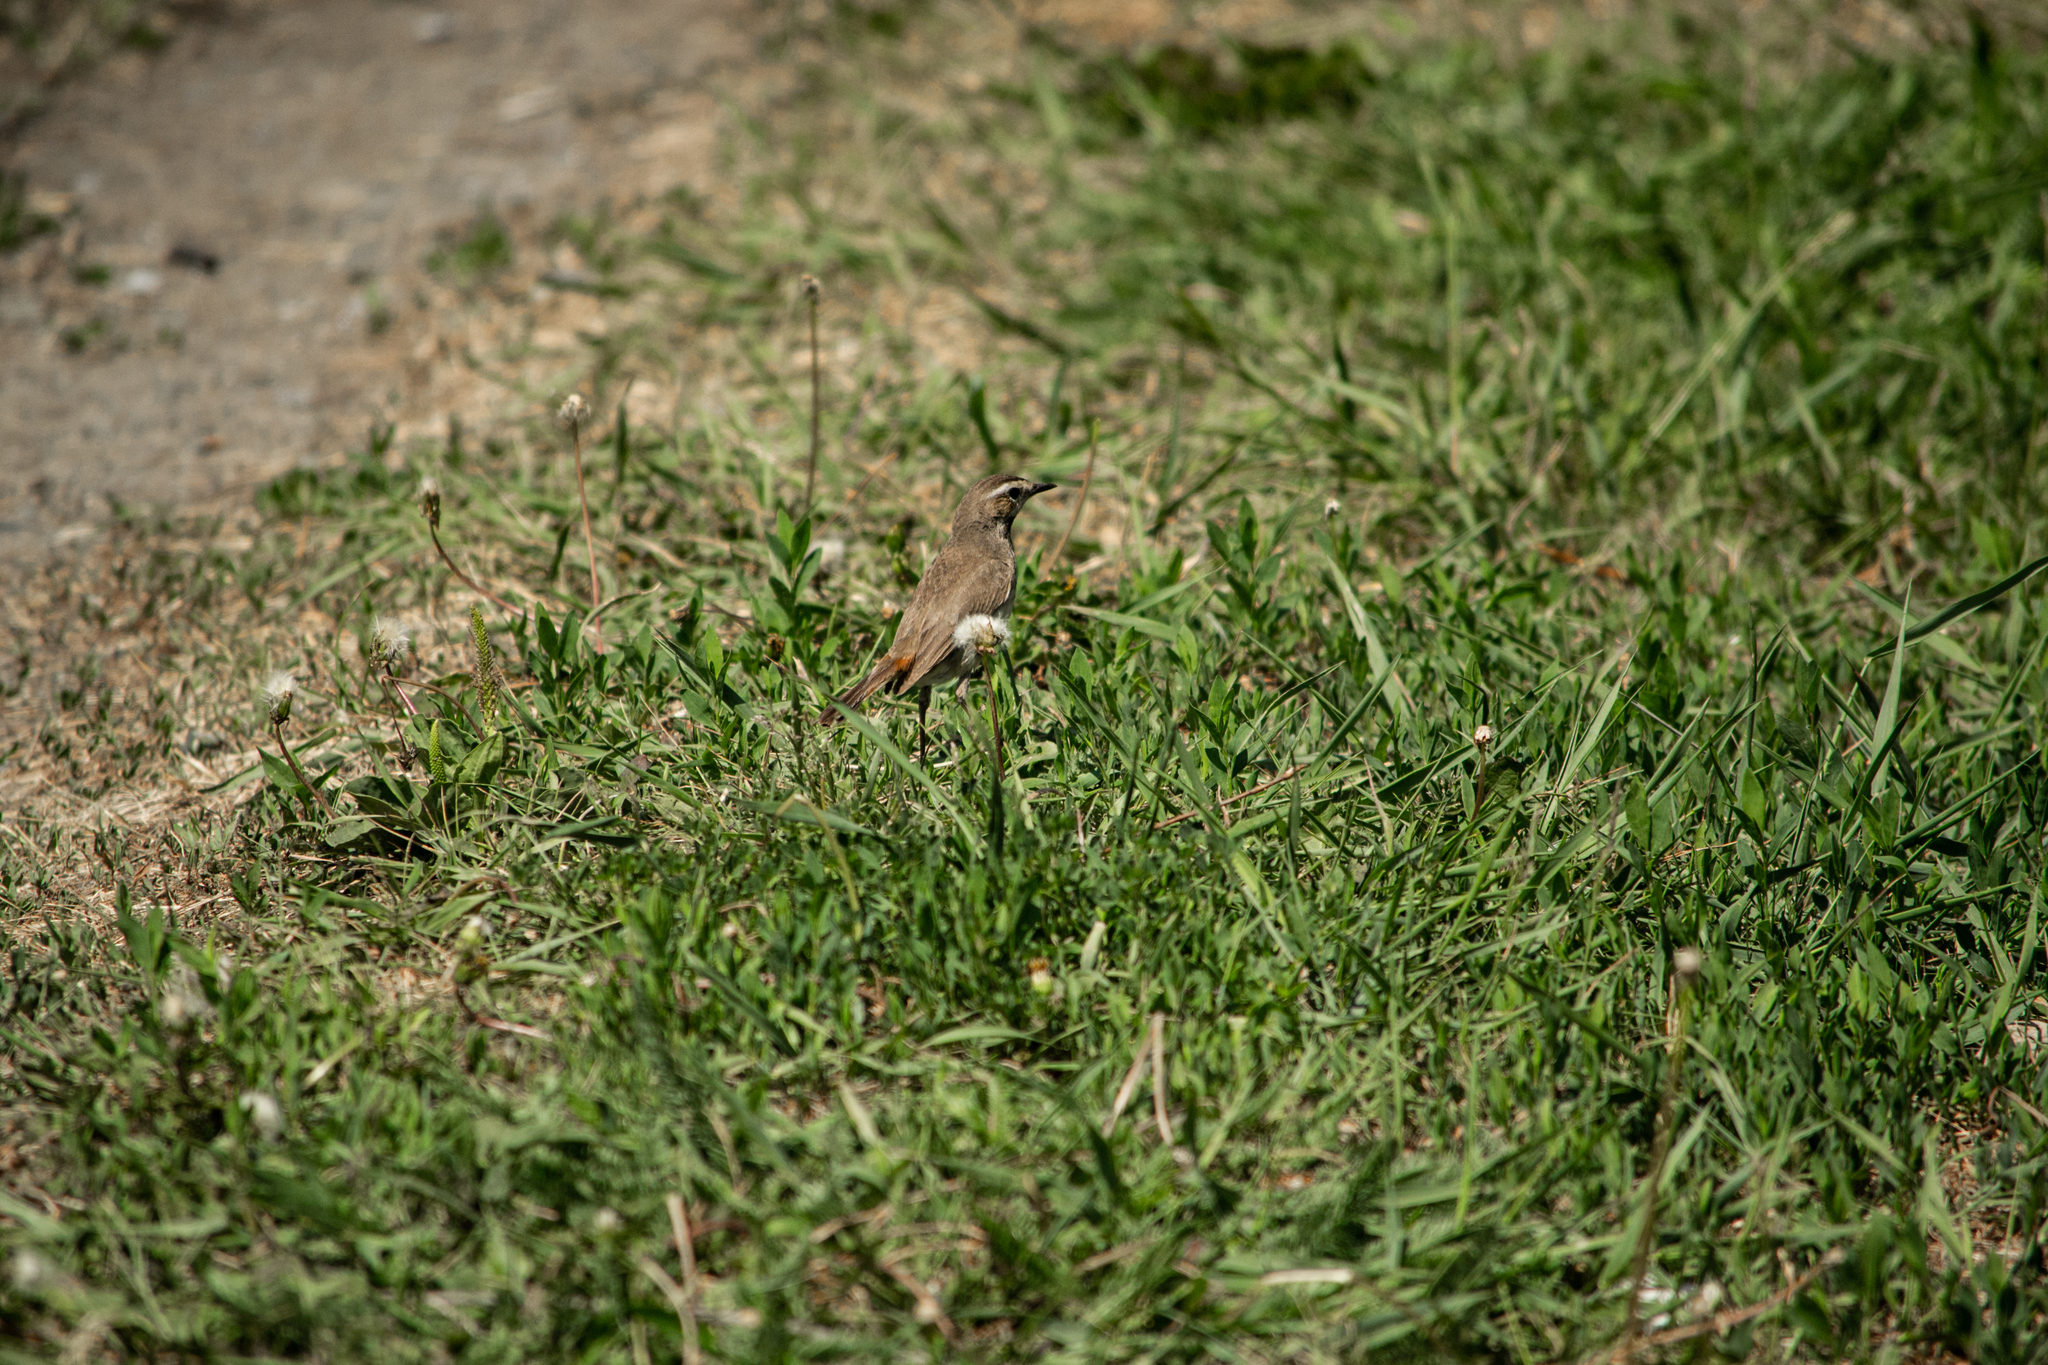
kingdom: Animalia
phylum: Chordata
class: Aves
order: Passeriformes
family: Muscicapidae
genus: Luscinia
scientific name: Luscinia svecica
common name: Bluethroat
